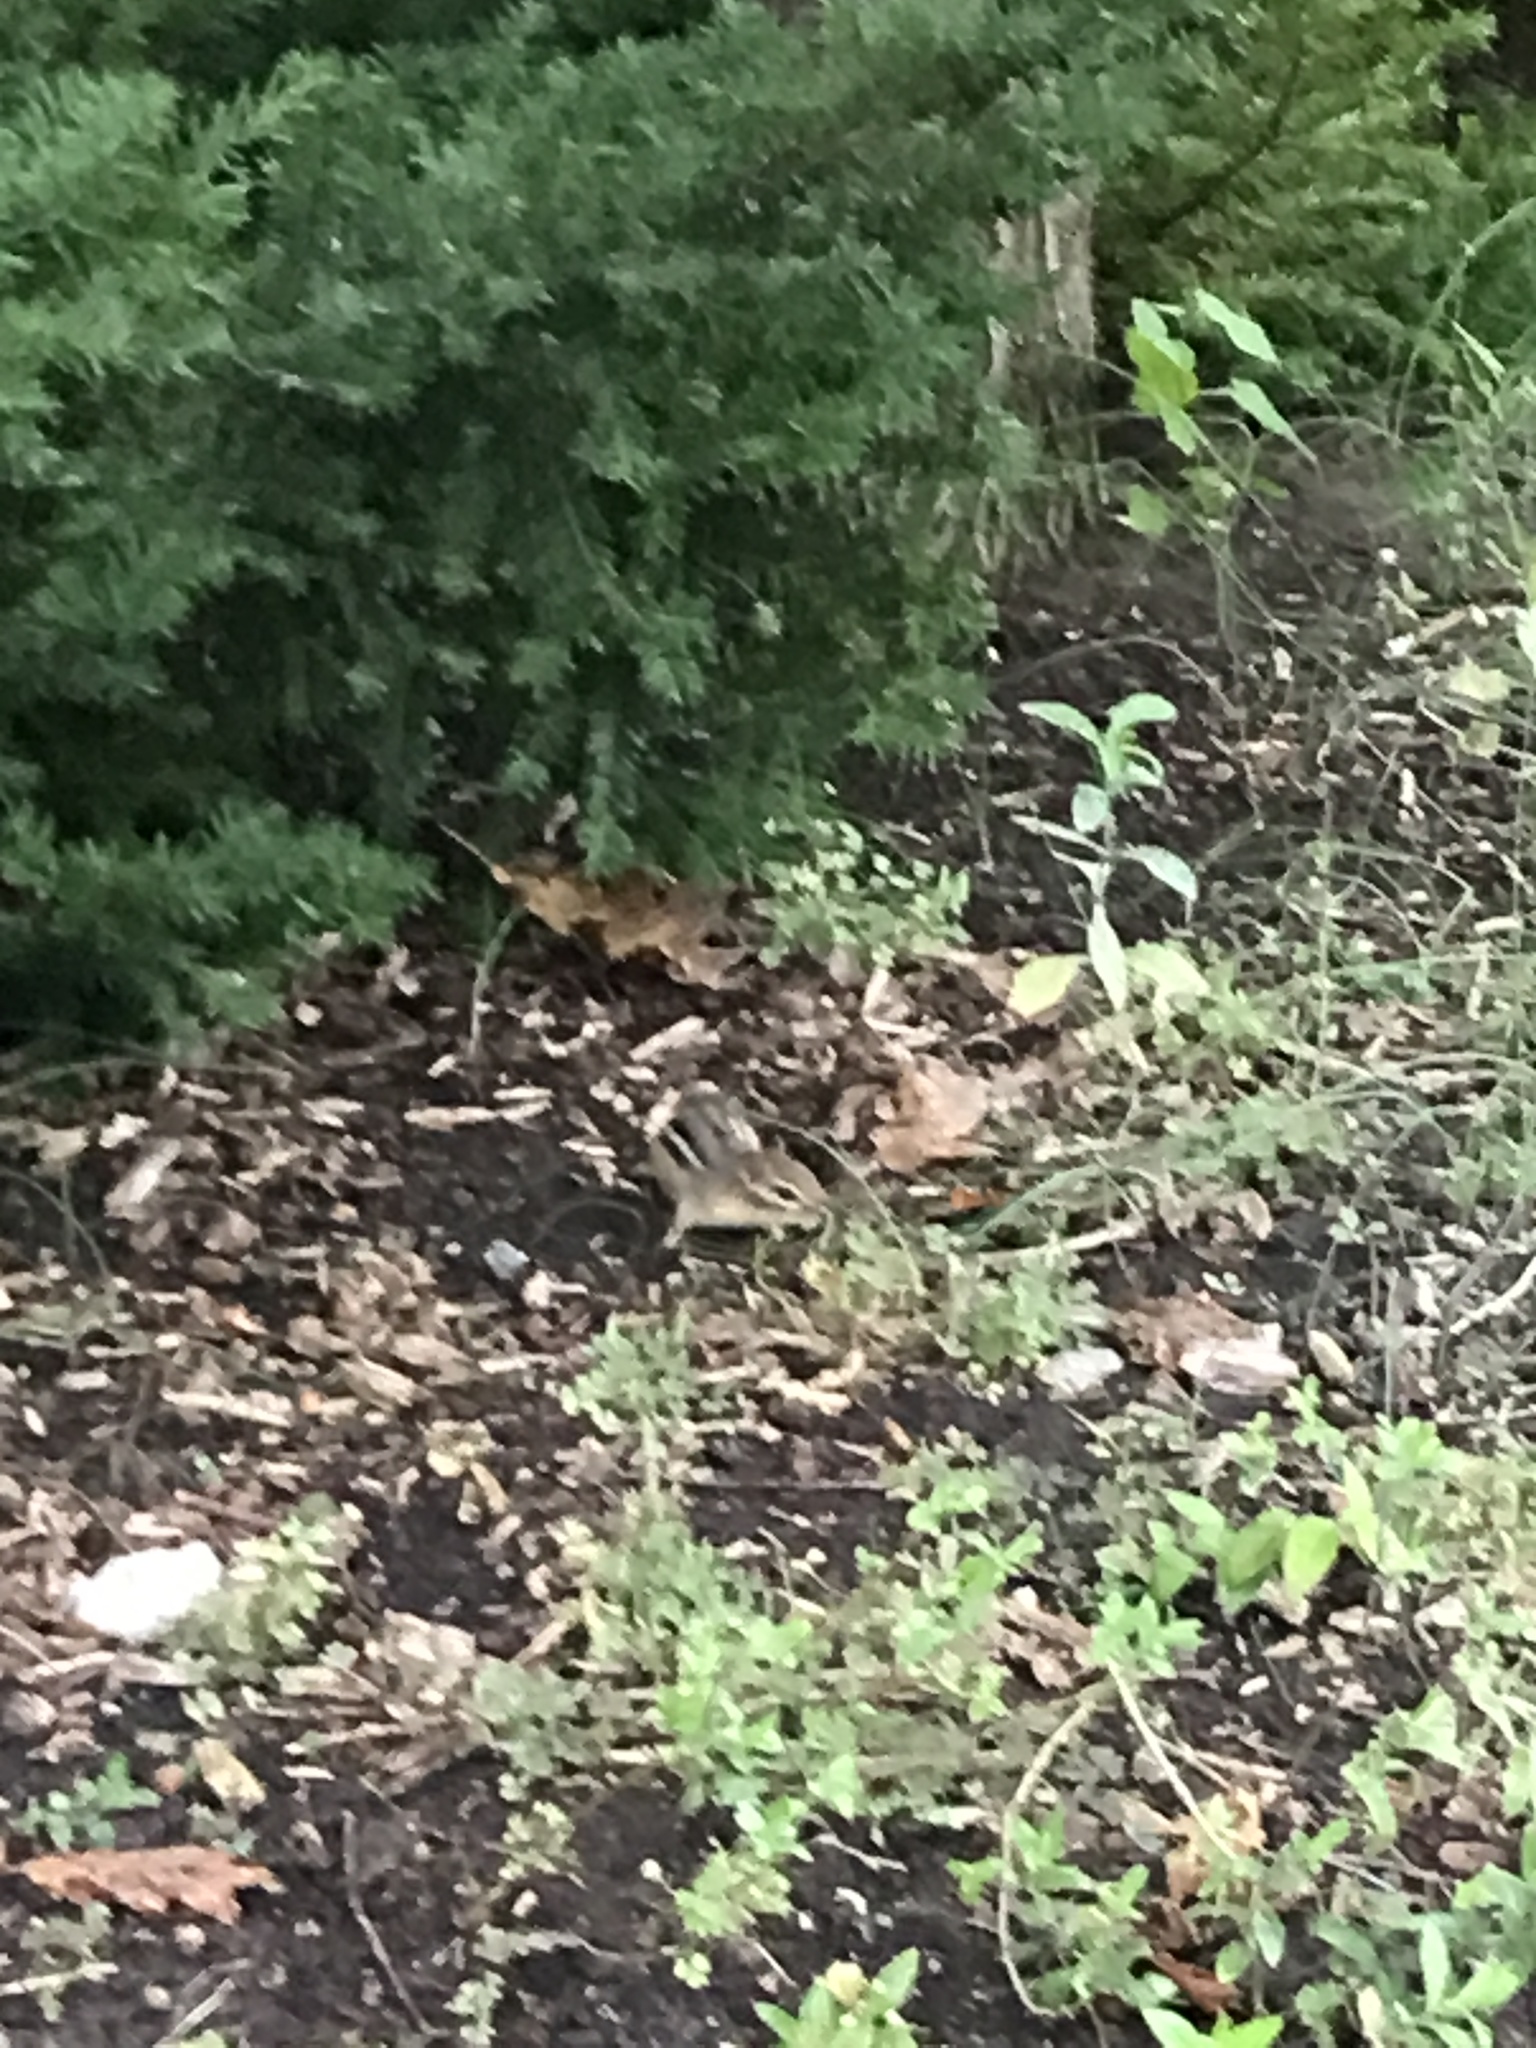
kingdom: Animalia
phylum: Chordata
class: Mammalia
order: Rodentia
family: Sciuridae
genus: Tamias
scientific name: Tamias striatus
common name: Eastern chipmunk
